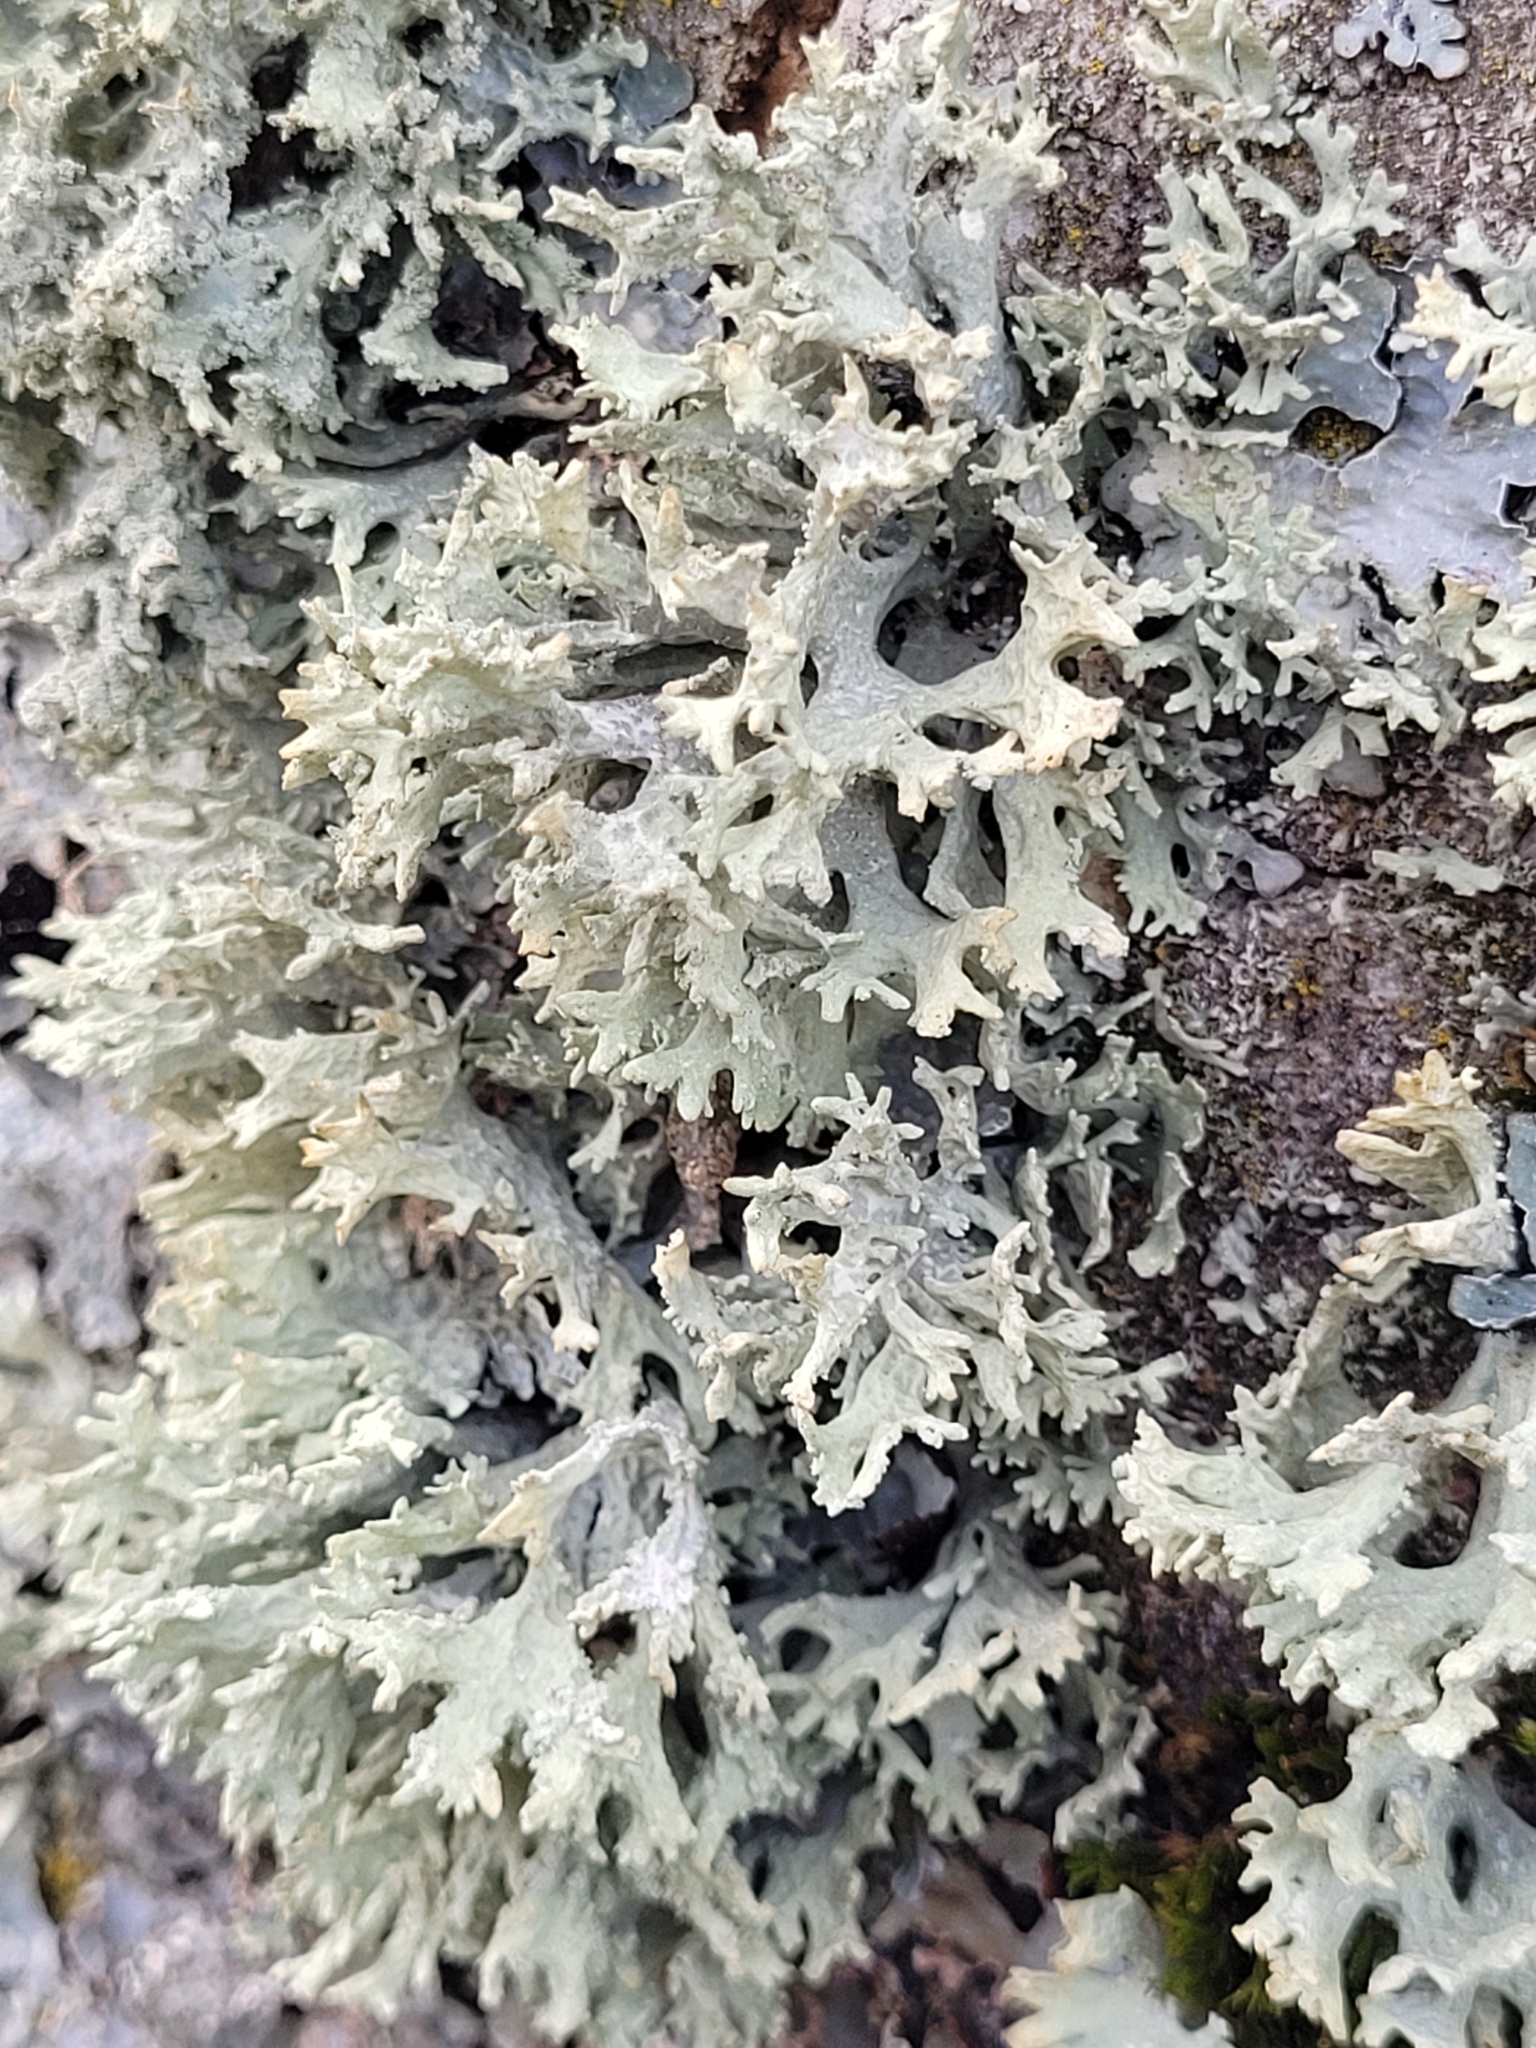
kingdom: Fungi
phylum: Ascomycota
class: Lecanoromycetes
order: Lecanorales
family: Parmeliaceae
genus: Evernia
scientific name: Evernia prunastri
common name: Oak moss
